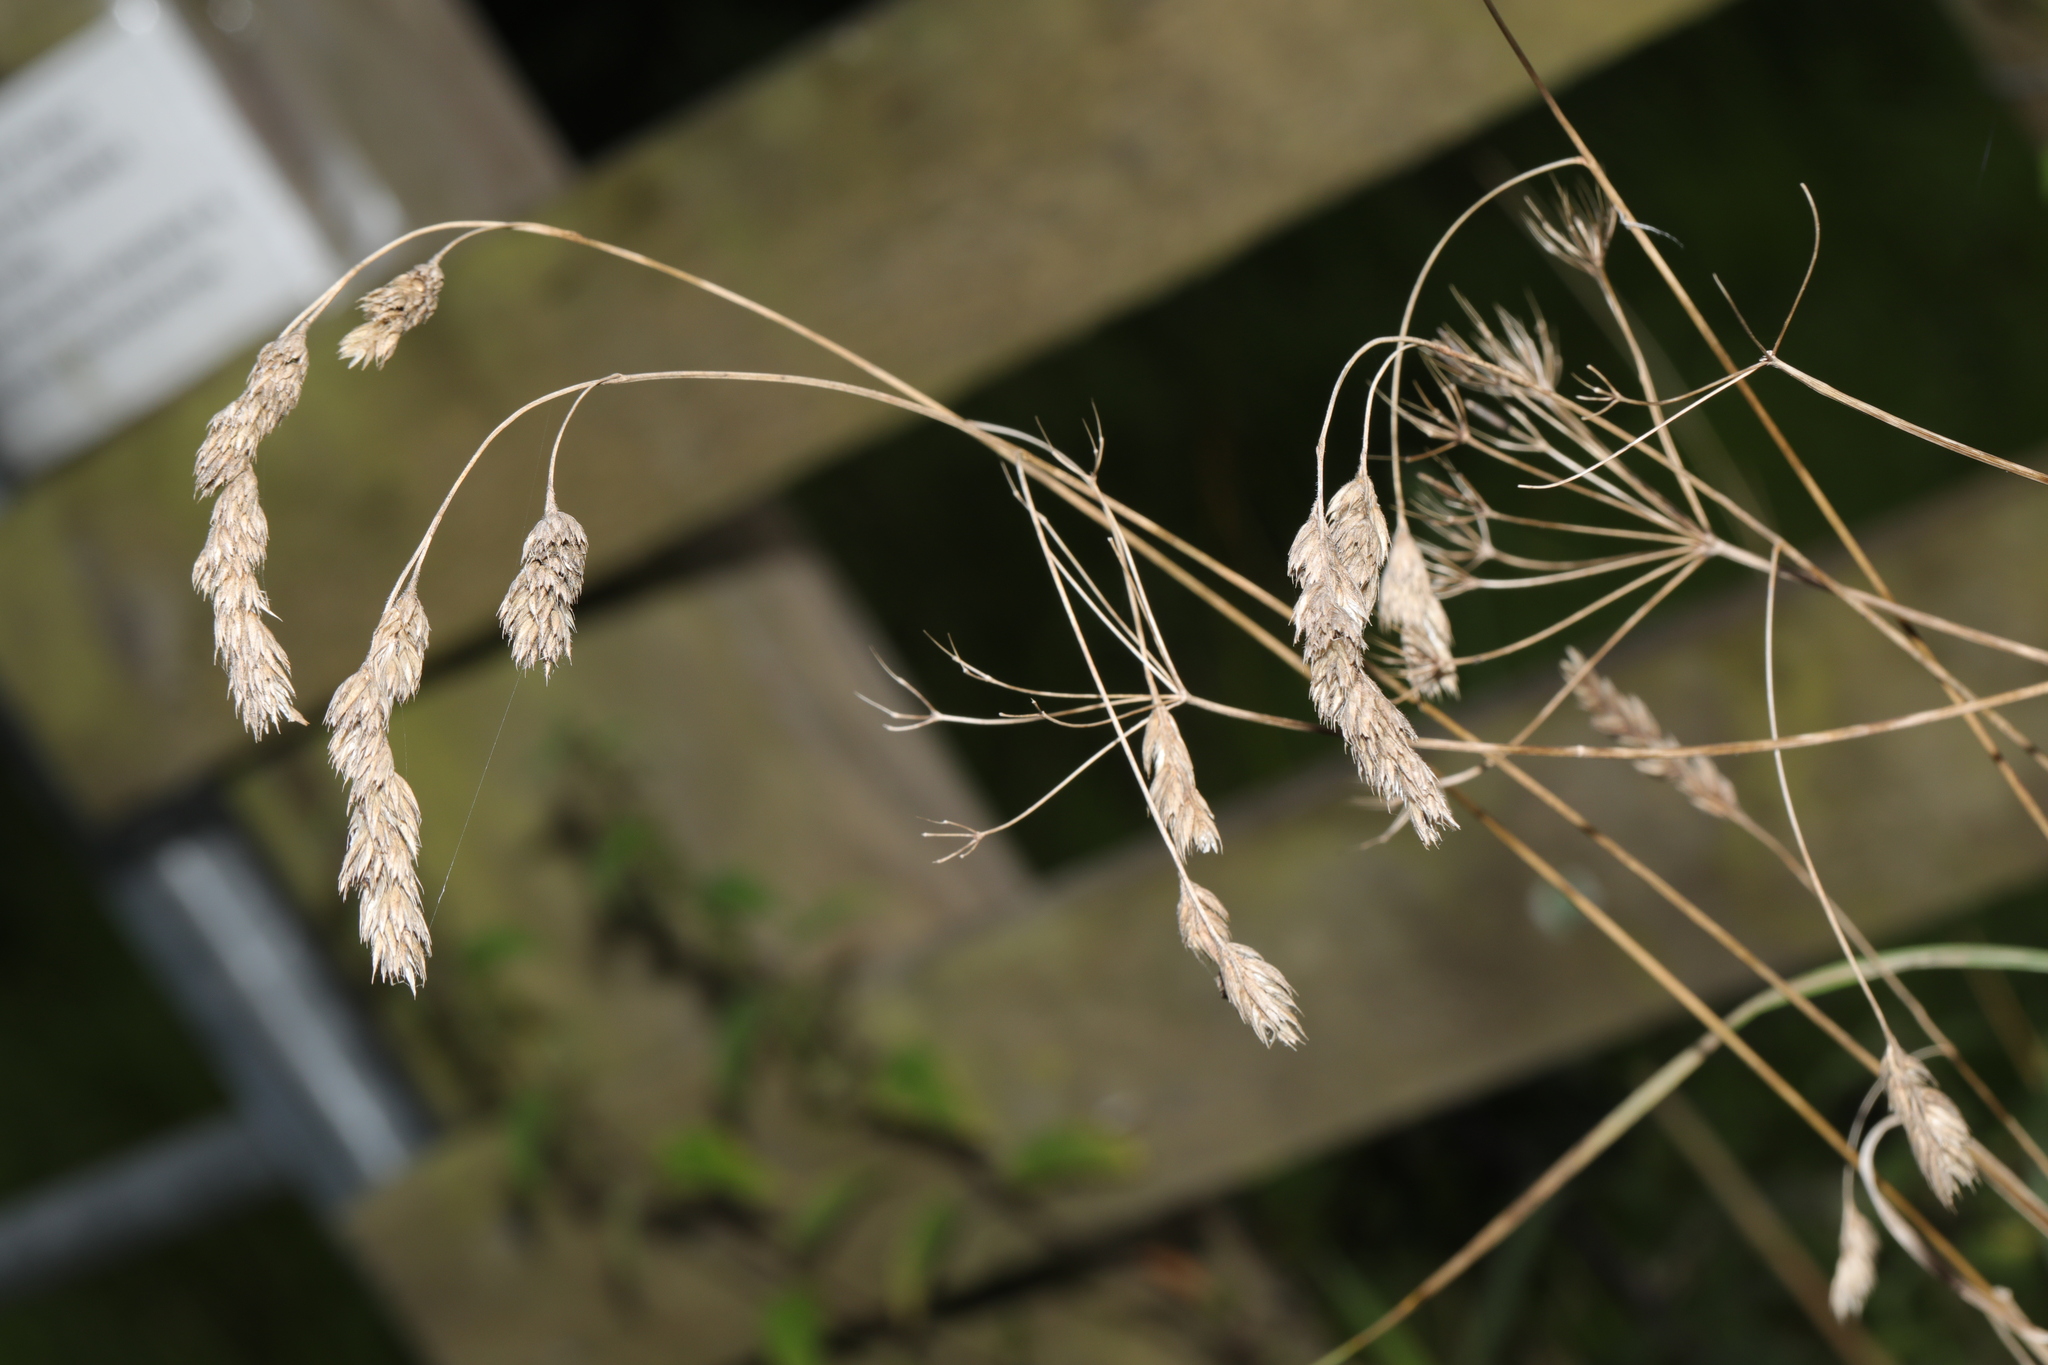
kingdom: Plantae
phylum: Tracheophyta
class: Liliopsida
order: Poales
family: Poaceae
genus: Dactylis
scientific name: Dactylis glomerata
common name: Orchardgrass
